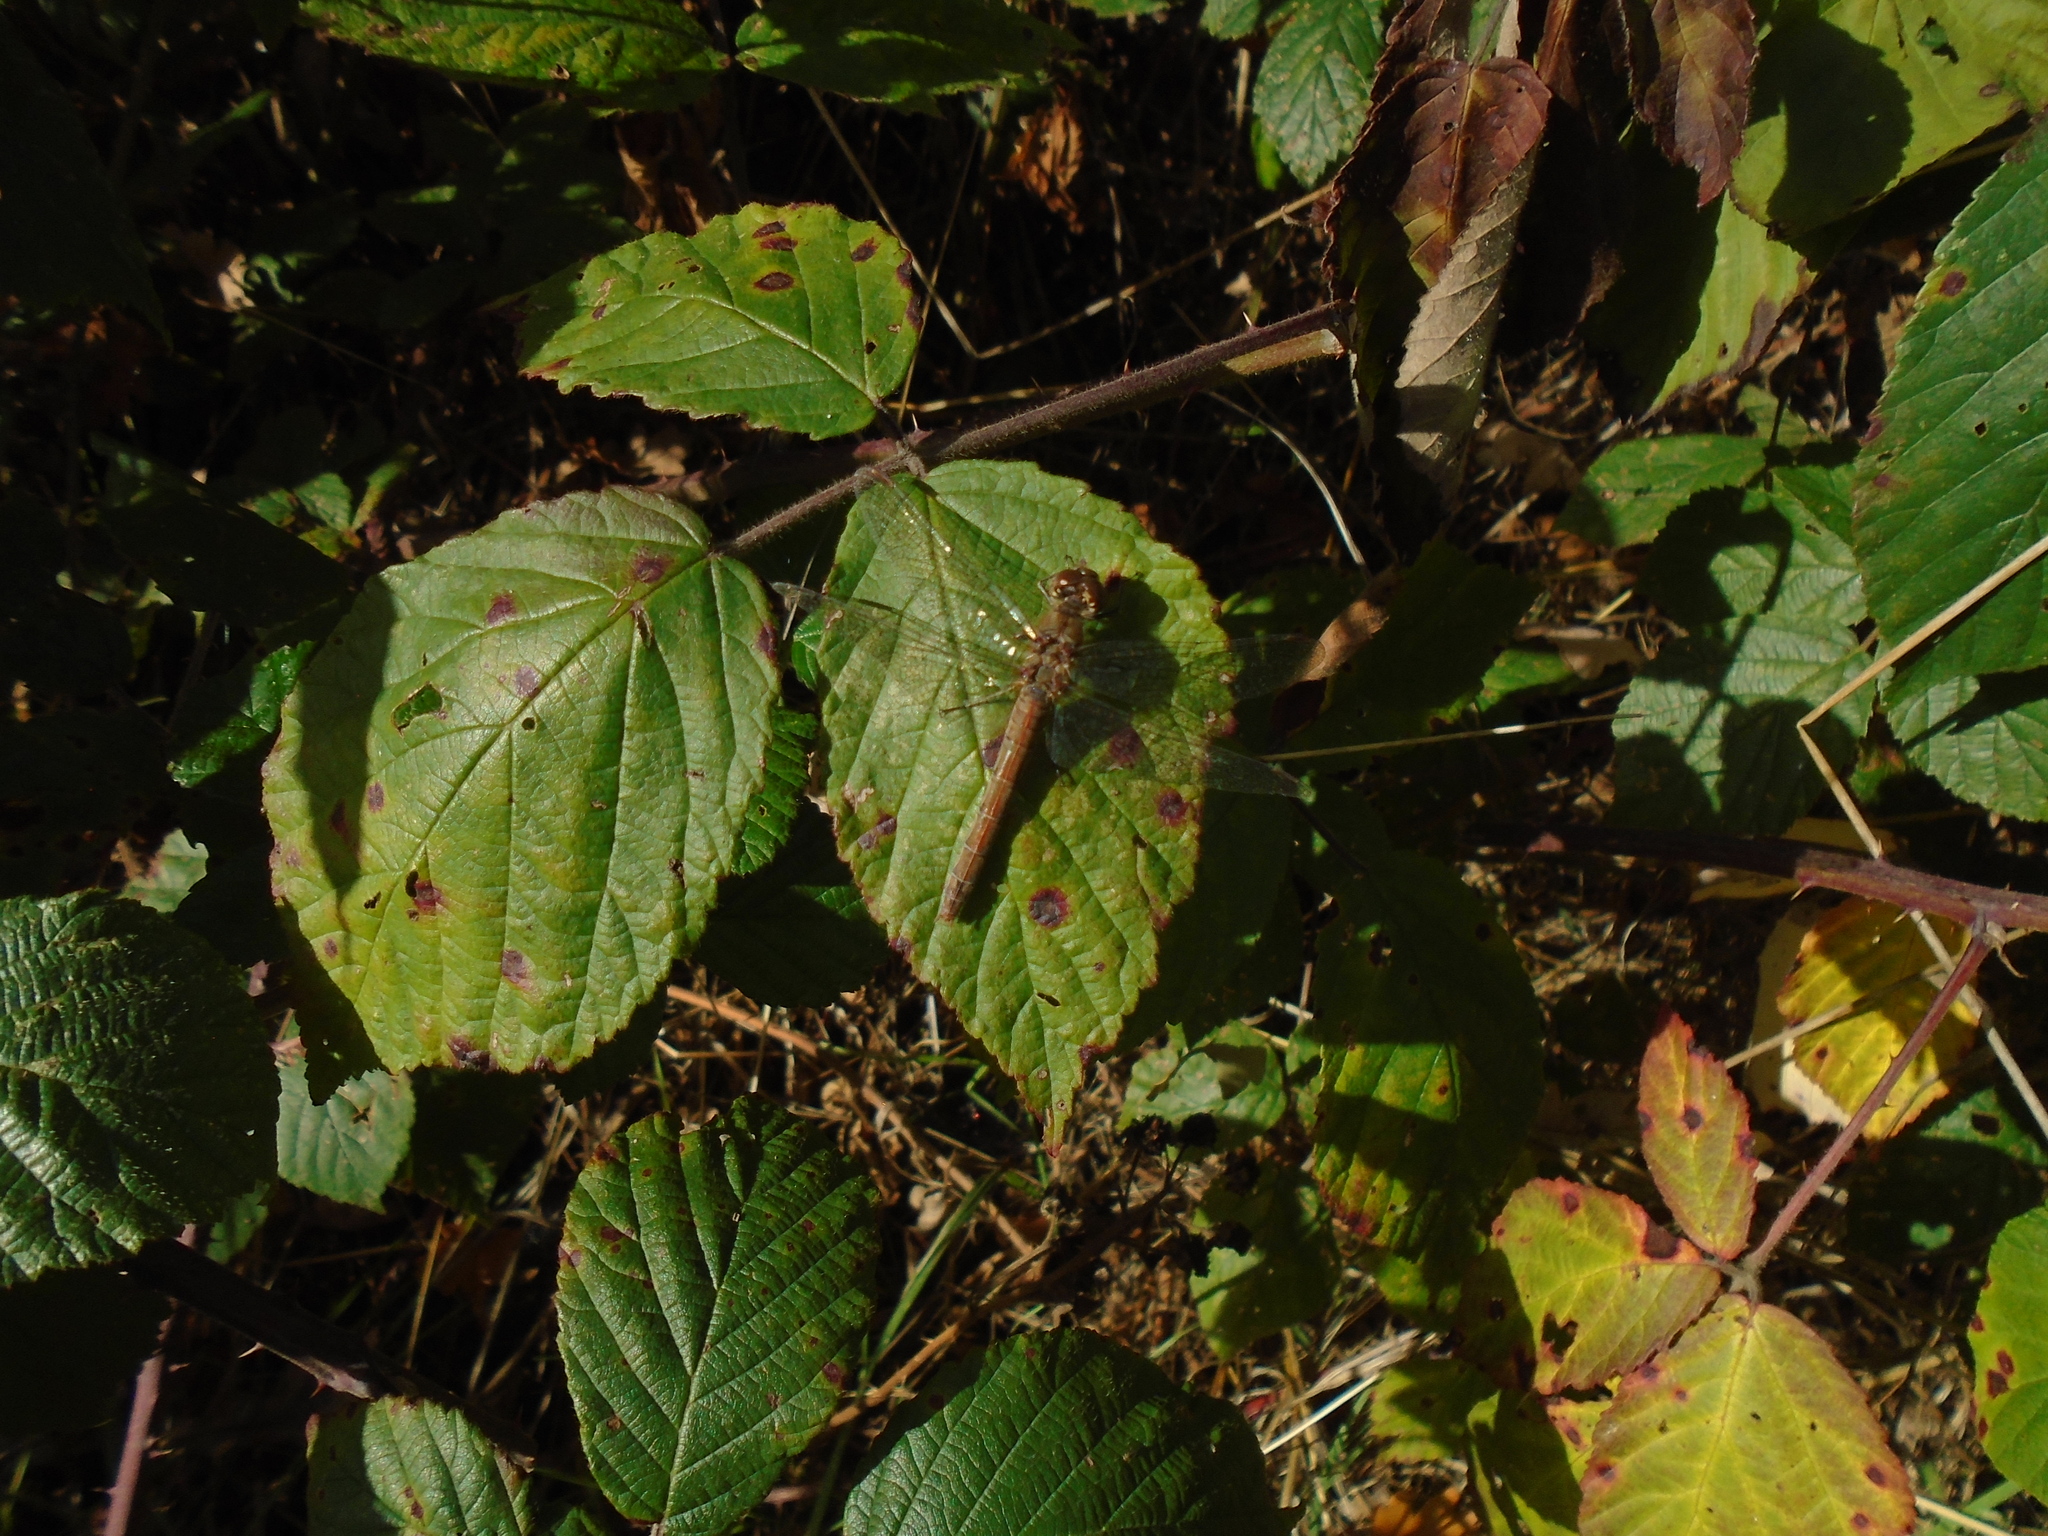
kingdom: Animalia
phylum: Arthropoda
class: Insecta
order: Odonata
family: Libellulidae
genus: Sympetrum
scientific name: Sympetrum striolatum
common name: Common darter
